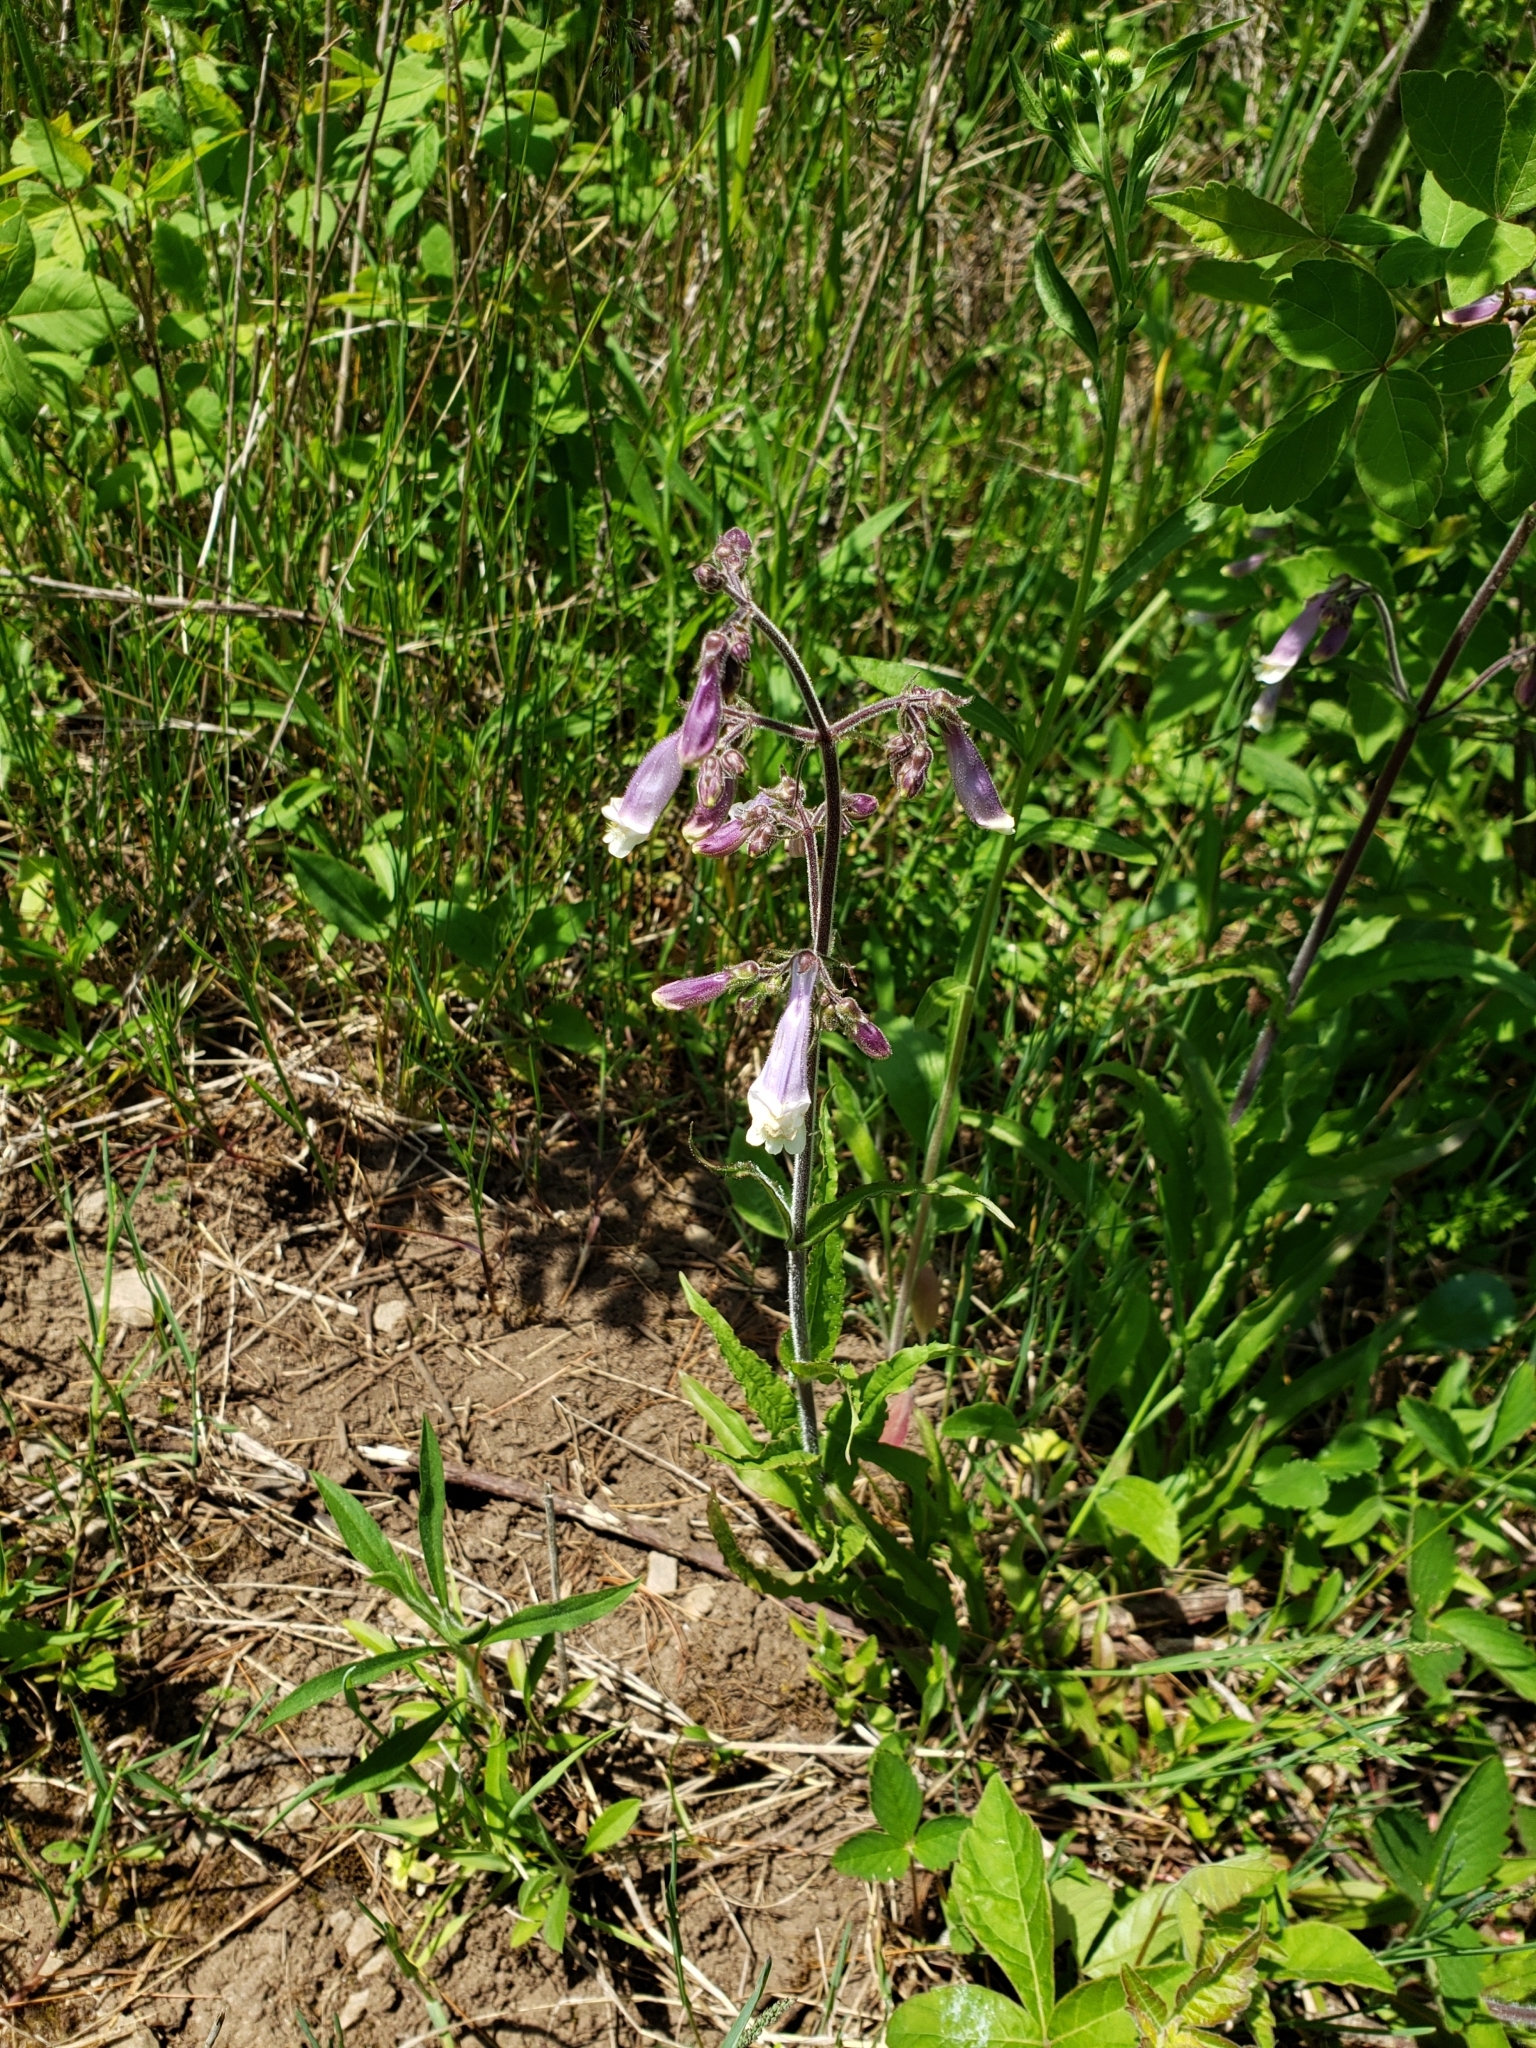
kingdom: Plantae
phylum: Tracheophyta
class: Magnoliopsida
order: Lamiales
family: Plantaginaceae
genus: Penstemon
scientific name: Penstemon hirsutus
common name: Hairy beardtongue
